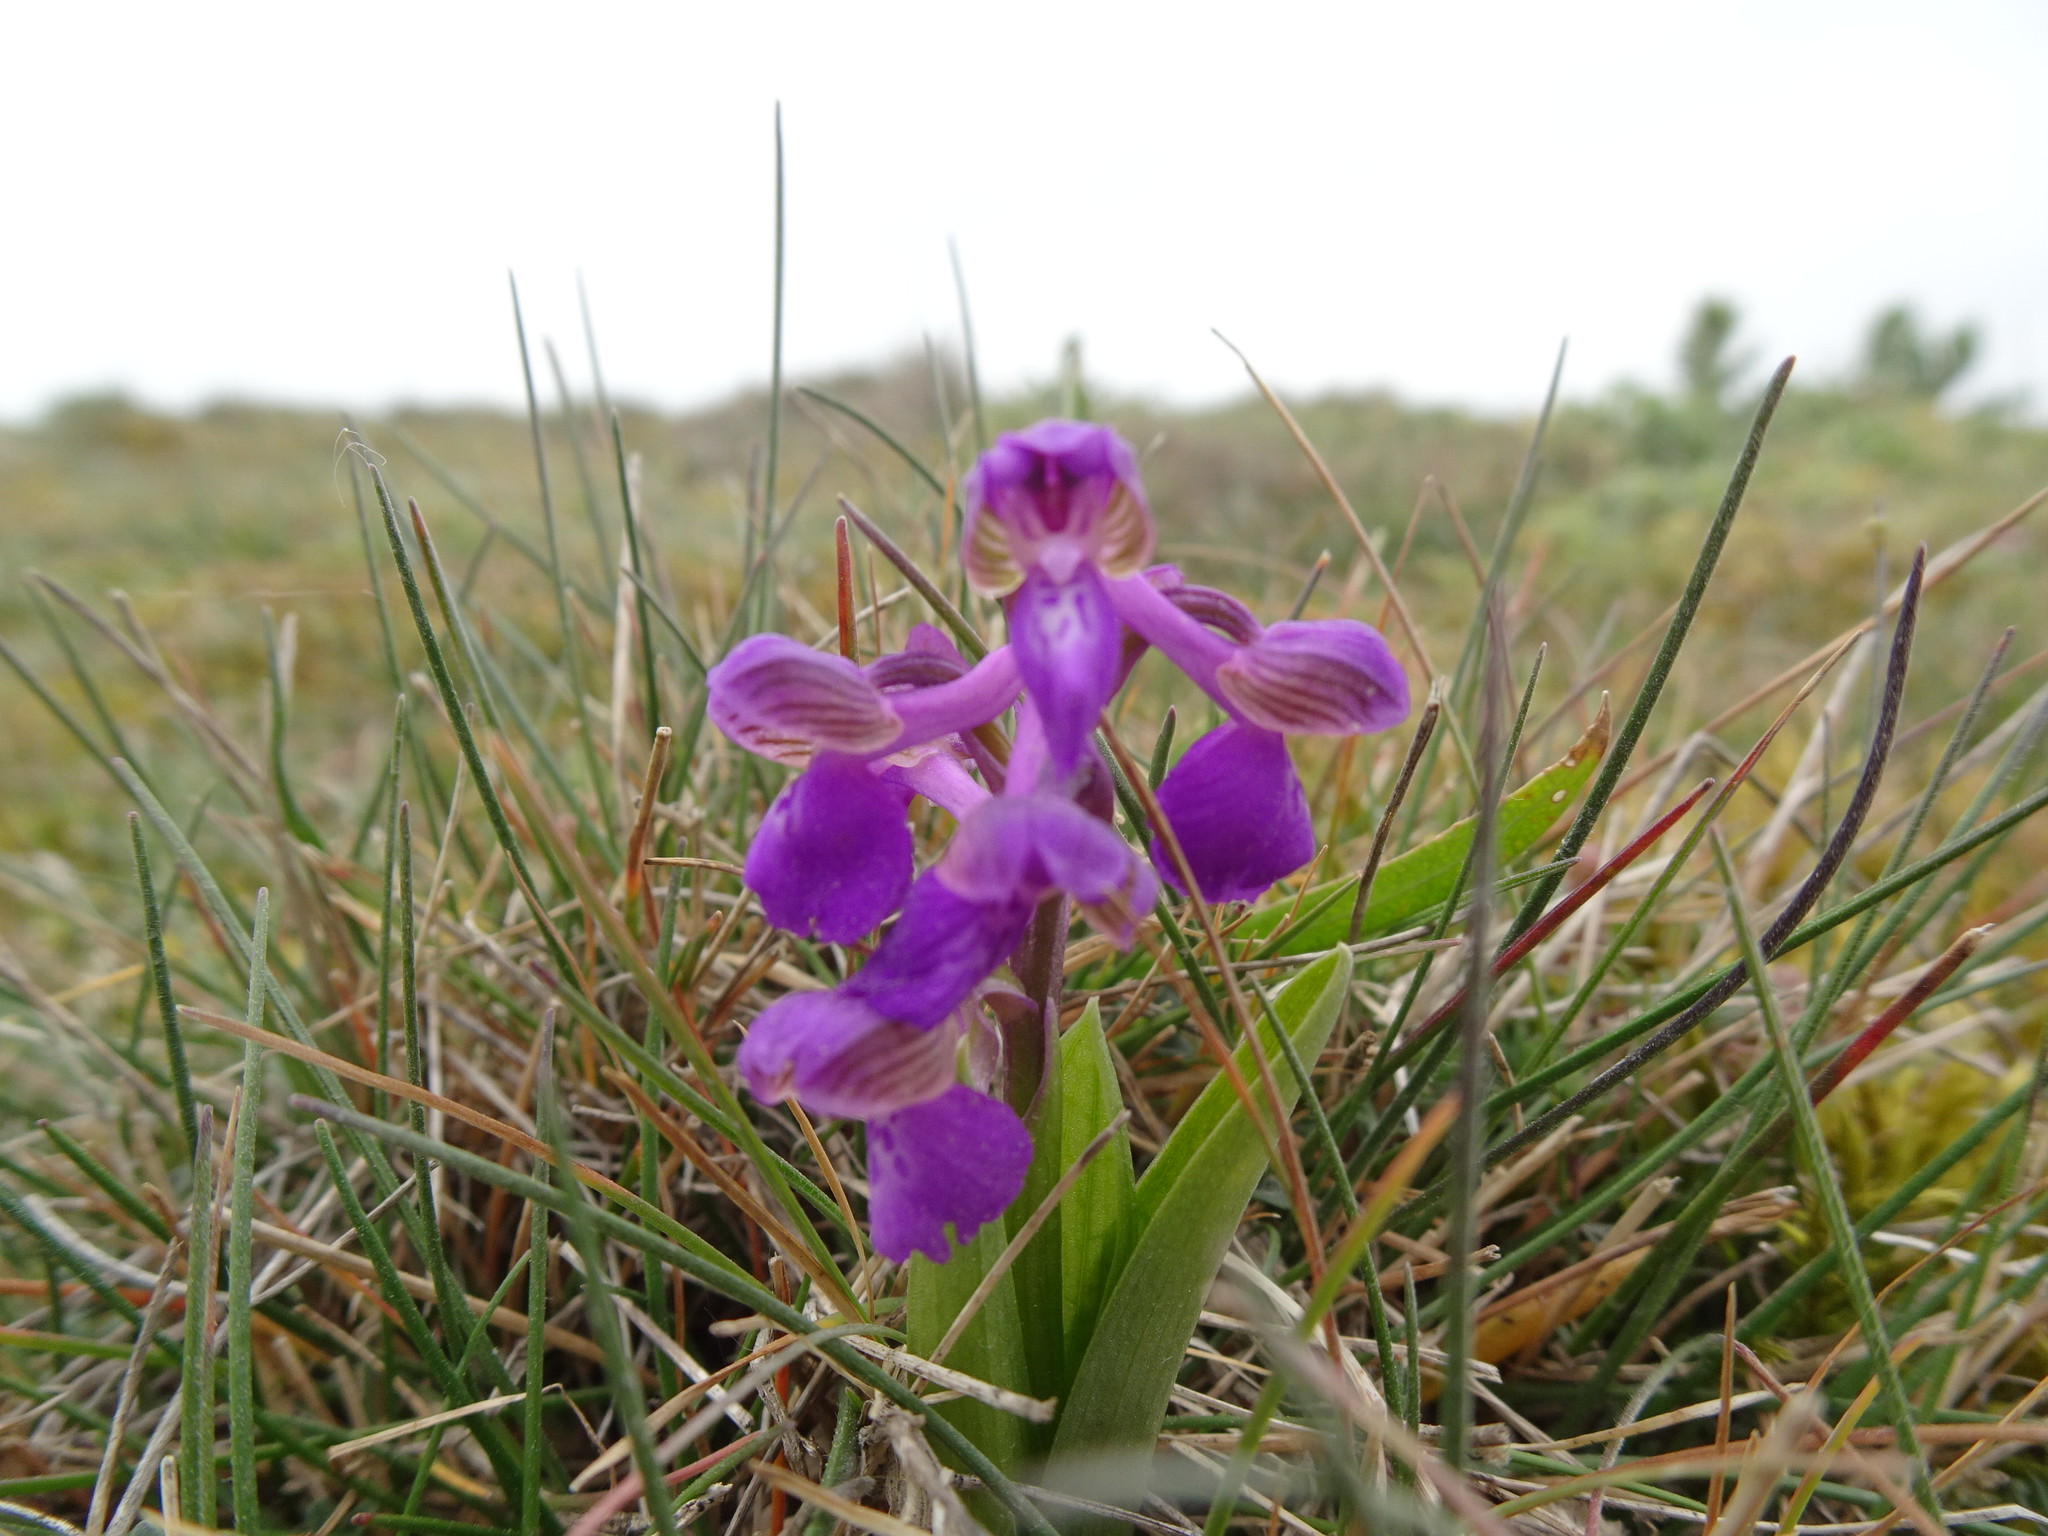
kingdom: Plantae
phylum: Tracheophyta
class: Liliopsida
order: Asparagales
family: Orchidaceae
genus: Anacamptis
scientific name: Anacamptis morio
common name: Green-winged orchid
